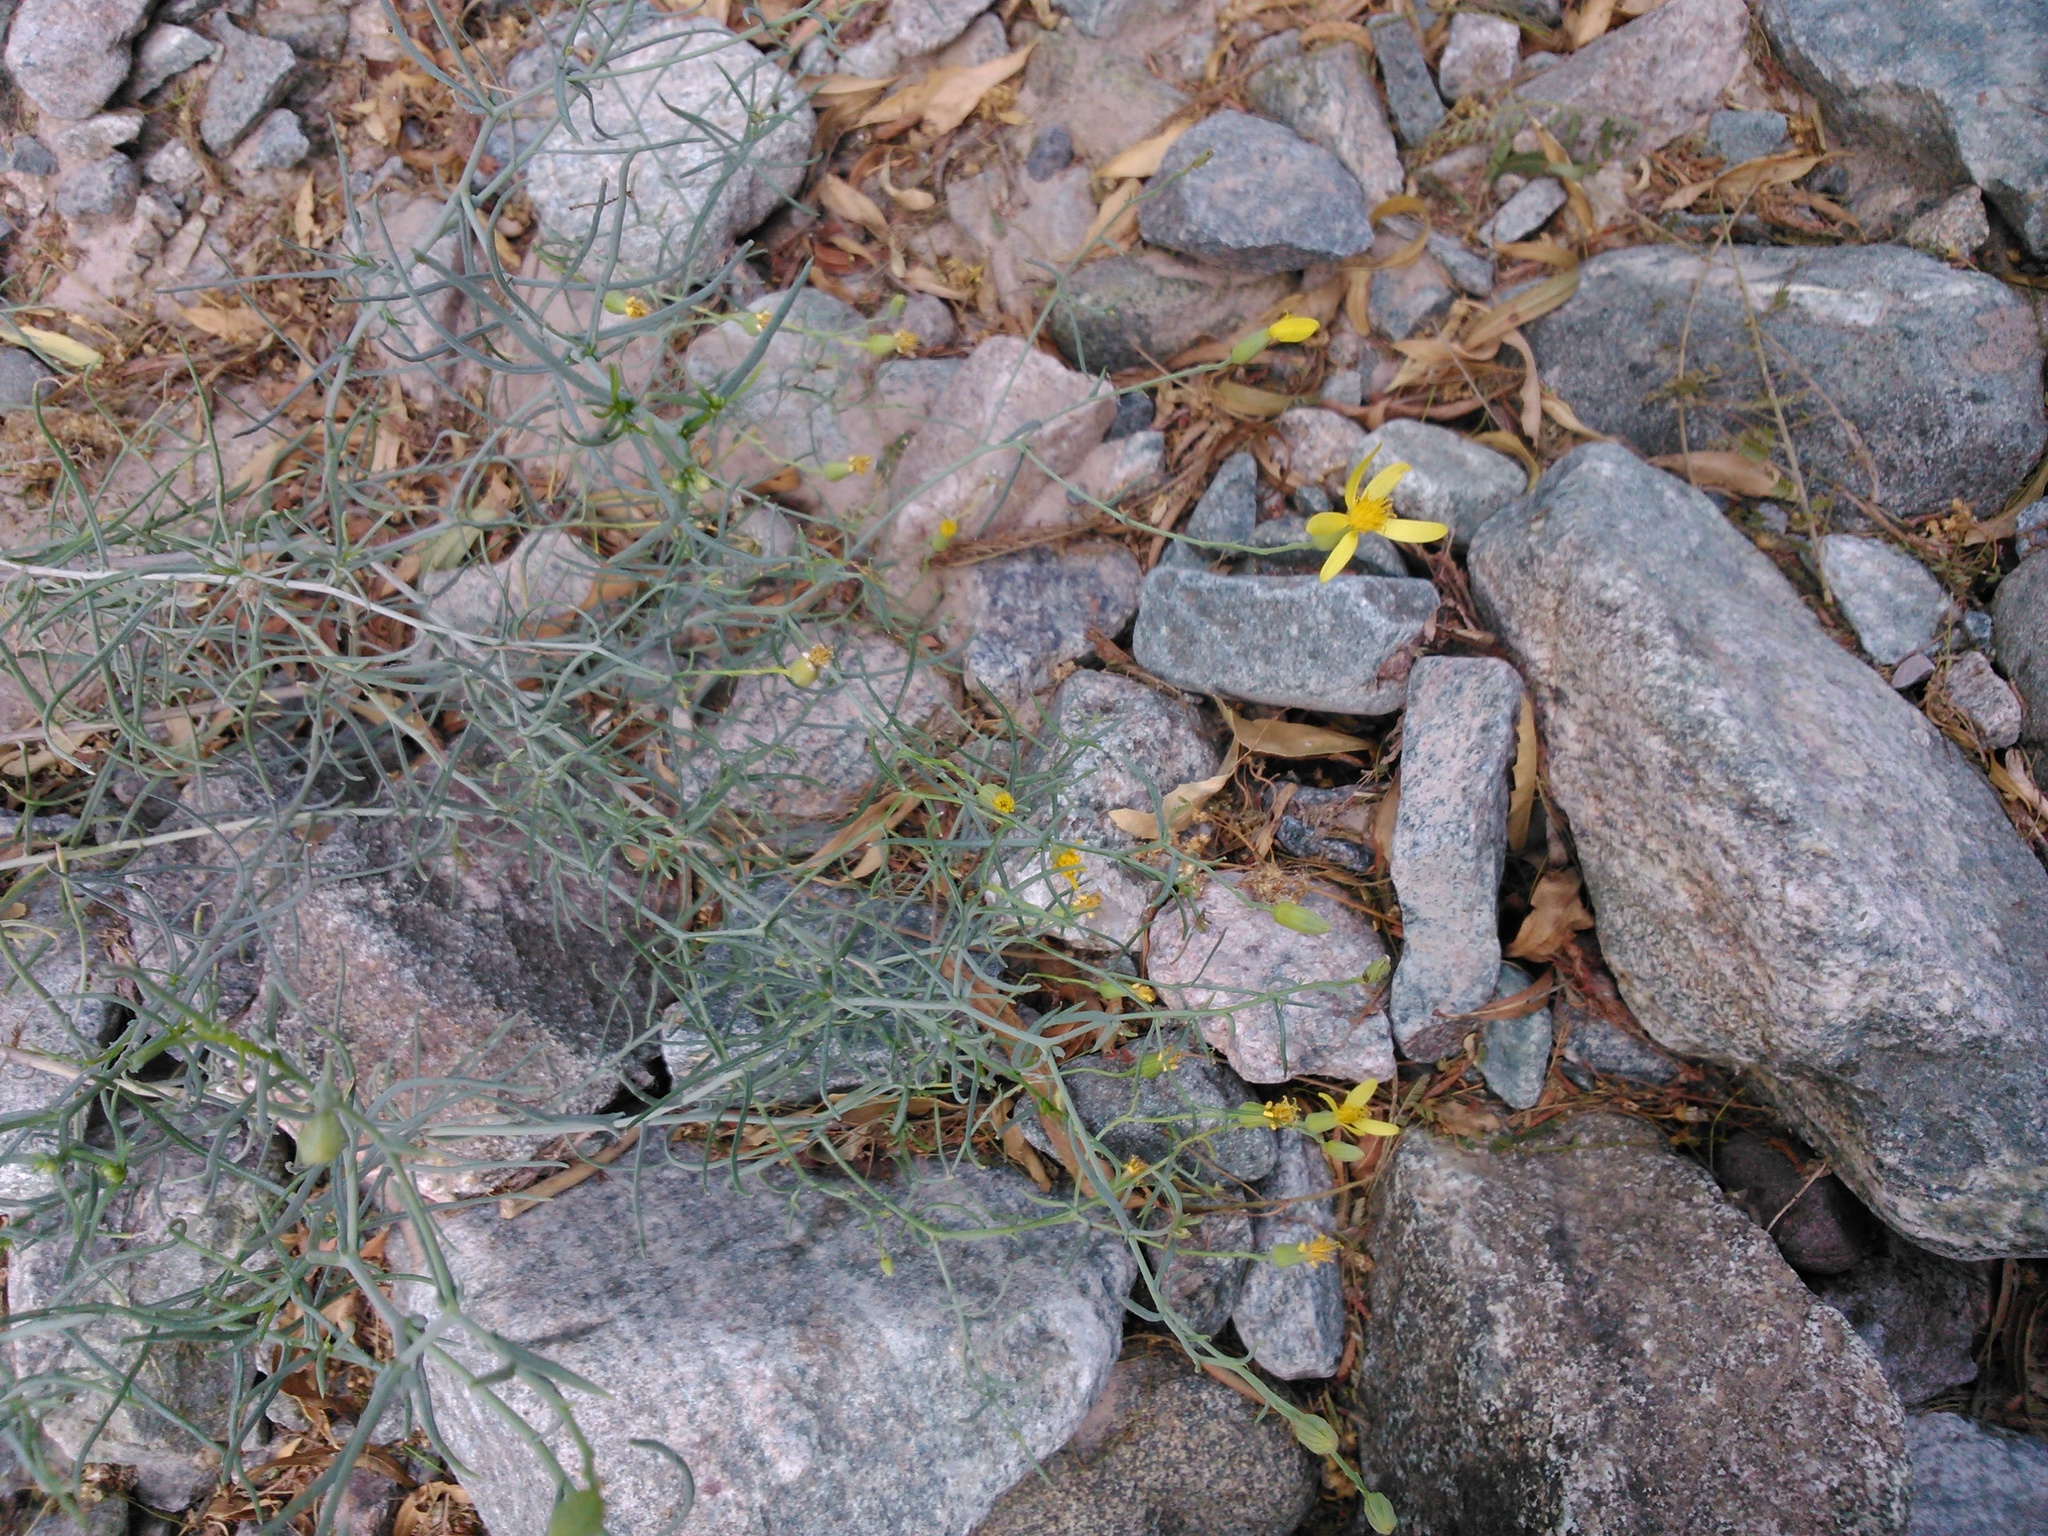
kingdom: Plantae
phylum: Tracheophyta
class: Magnoliopsida
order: Asterales
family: Asteraceae
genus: Senecio
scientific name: Senecio yurensis
